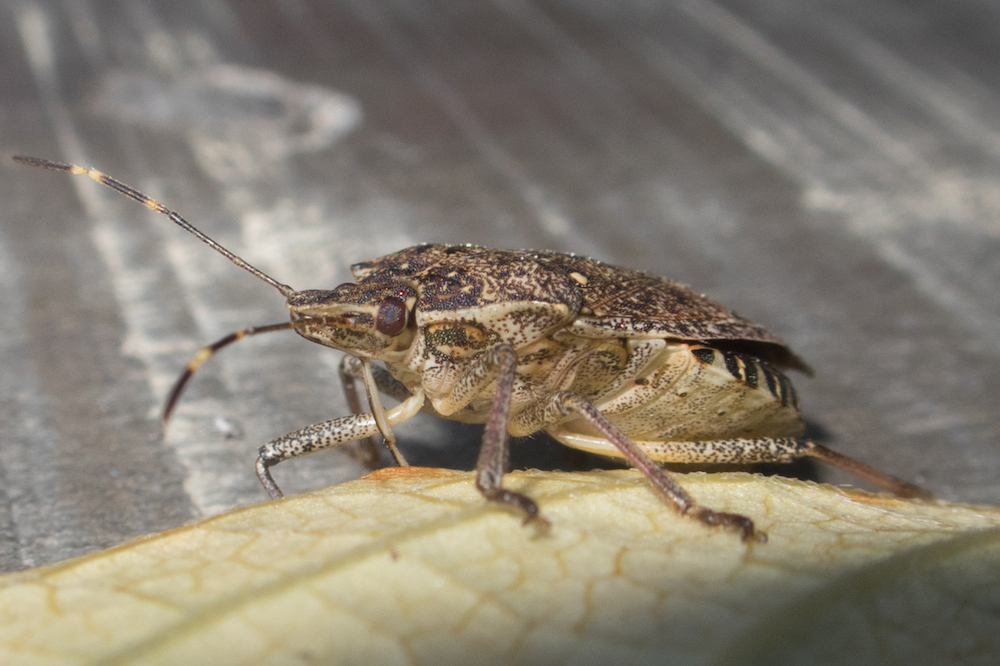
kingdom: Animalia
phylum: Arthropoda
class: Insecta
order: Hemiptera
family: Pentatomidae
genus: Halyomorpha
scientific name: Halyomorpha halys
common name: Brown marmorated stink bug
